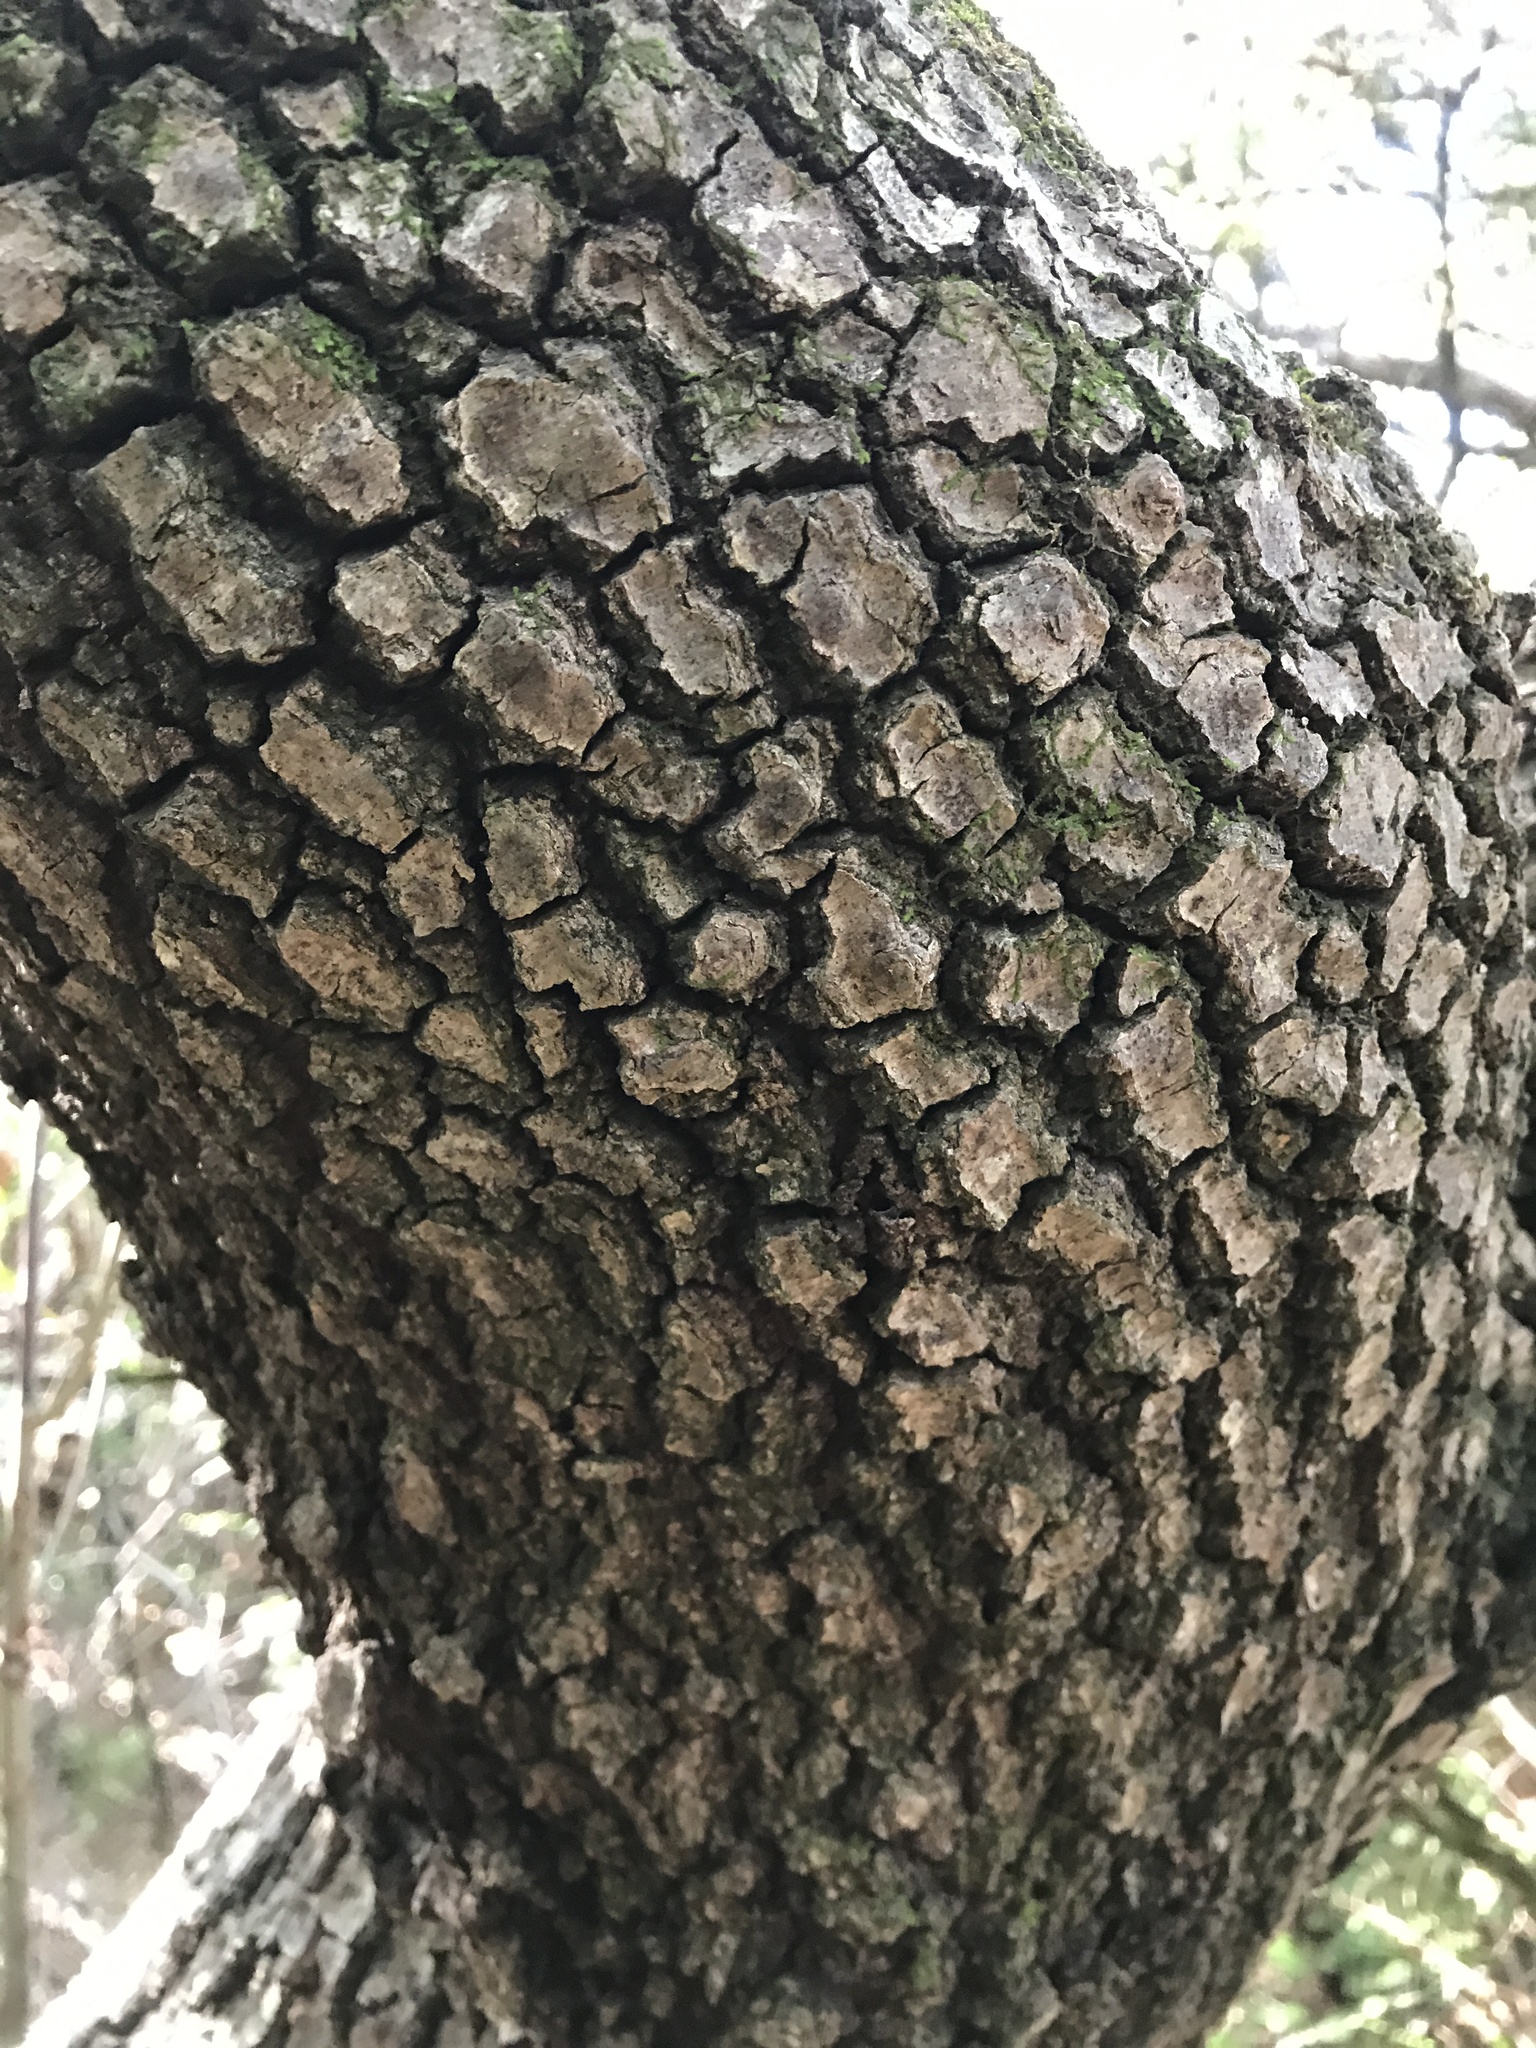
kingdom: Plantae
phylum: Tracheophyta
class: Magnoliopsida
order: Fagales
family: Fagaceae
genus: Quercus
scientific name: Quercus buckleyi
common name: Buckley oak
